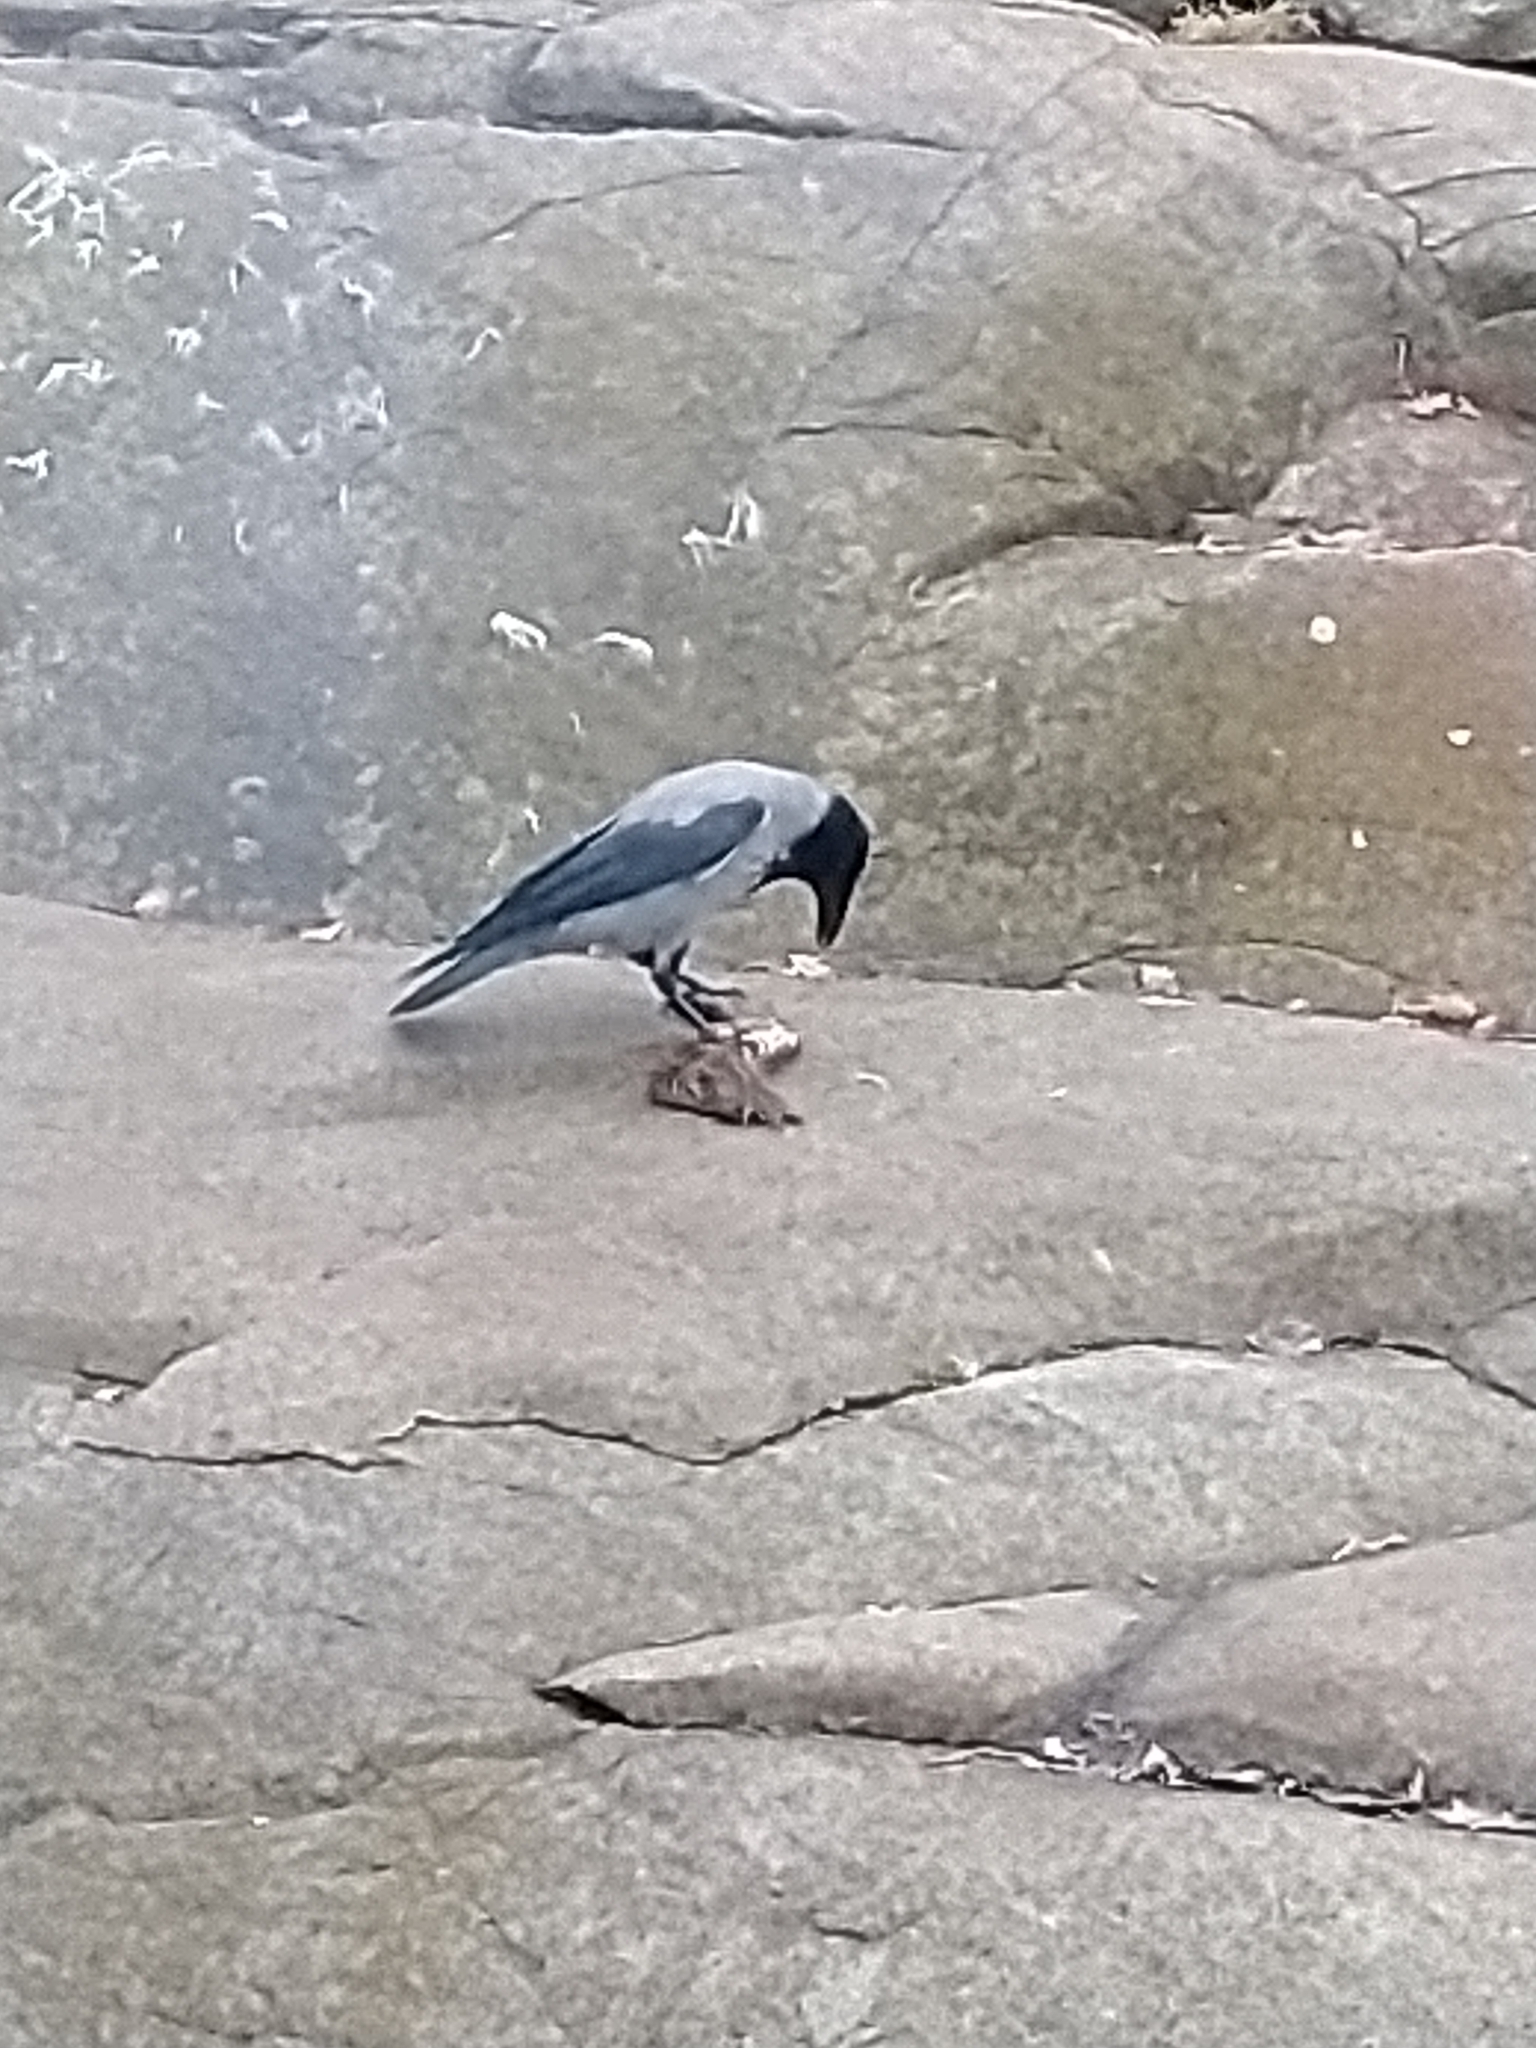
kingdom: Animalia
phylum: Chordata
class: Aves
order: Passeriformes
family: Corvidae
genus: Corvus
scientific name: Corvus cornix
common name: Hooded crow
